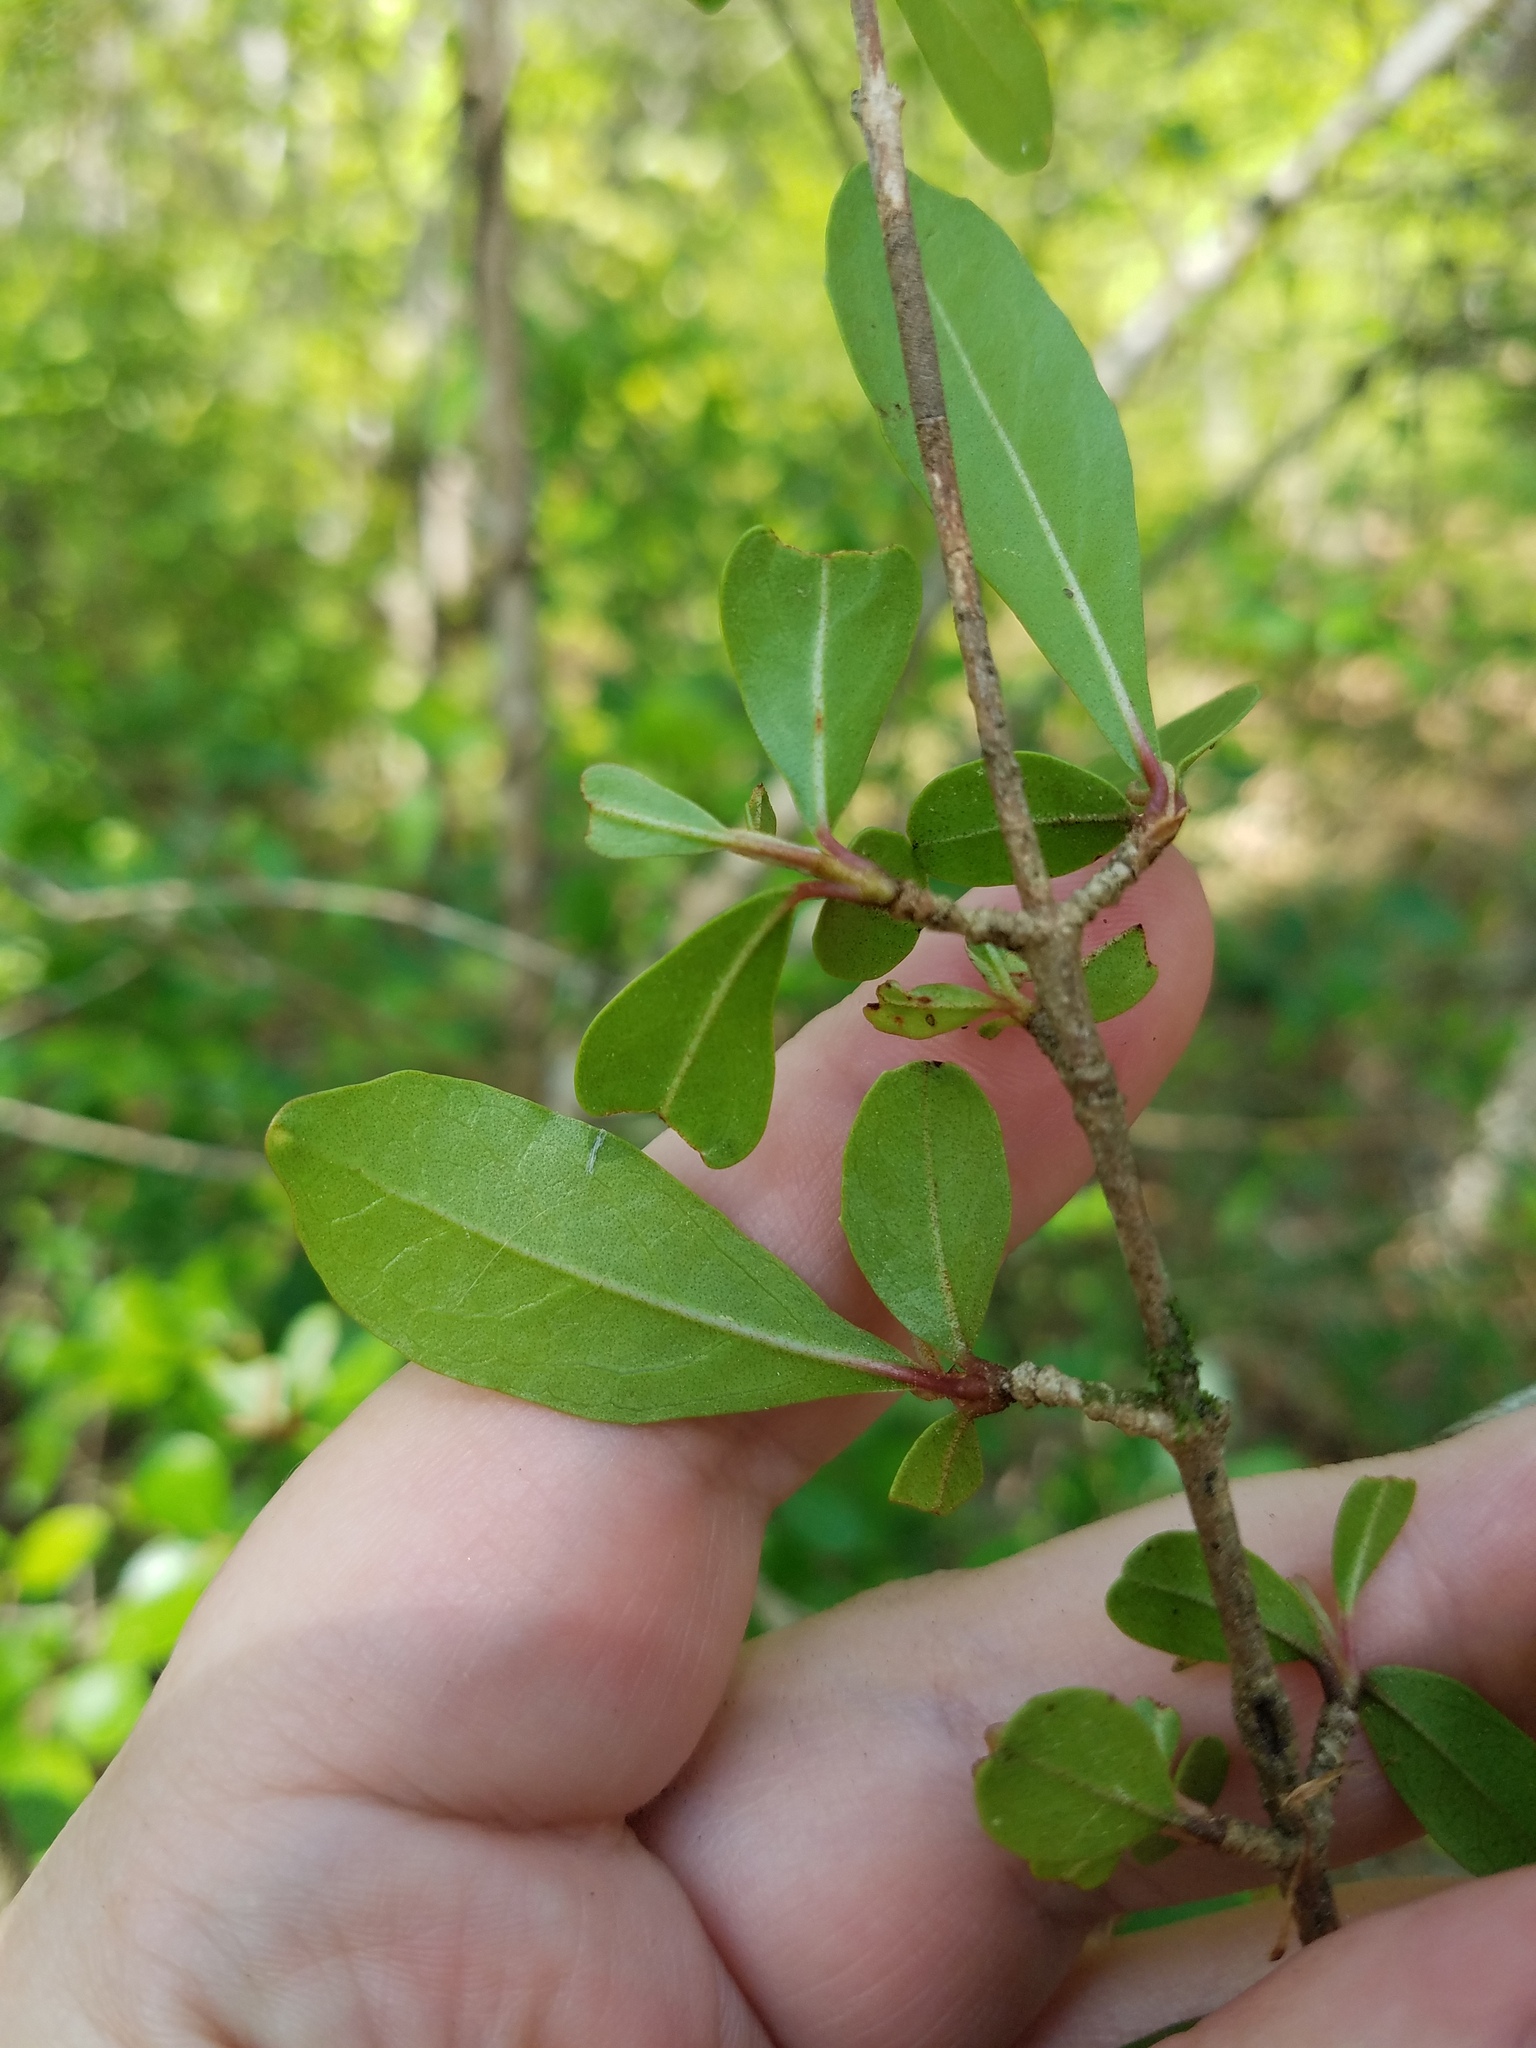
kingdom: Plantae
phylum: Tracheophyta
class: Magnoliopsida
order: Dipsacales
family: Viburnaceae
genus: Viburnum
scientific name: Viburnum obovatum
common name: Walter's viburnum
